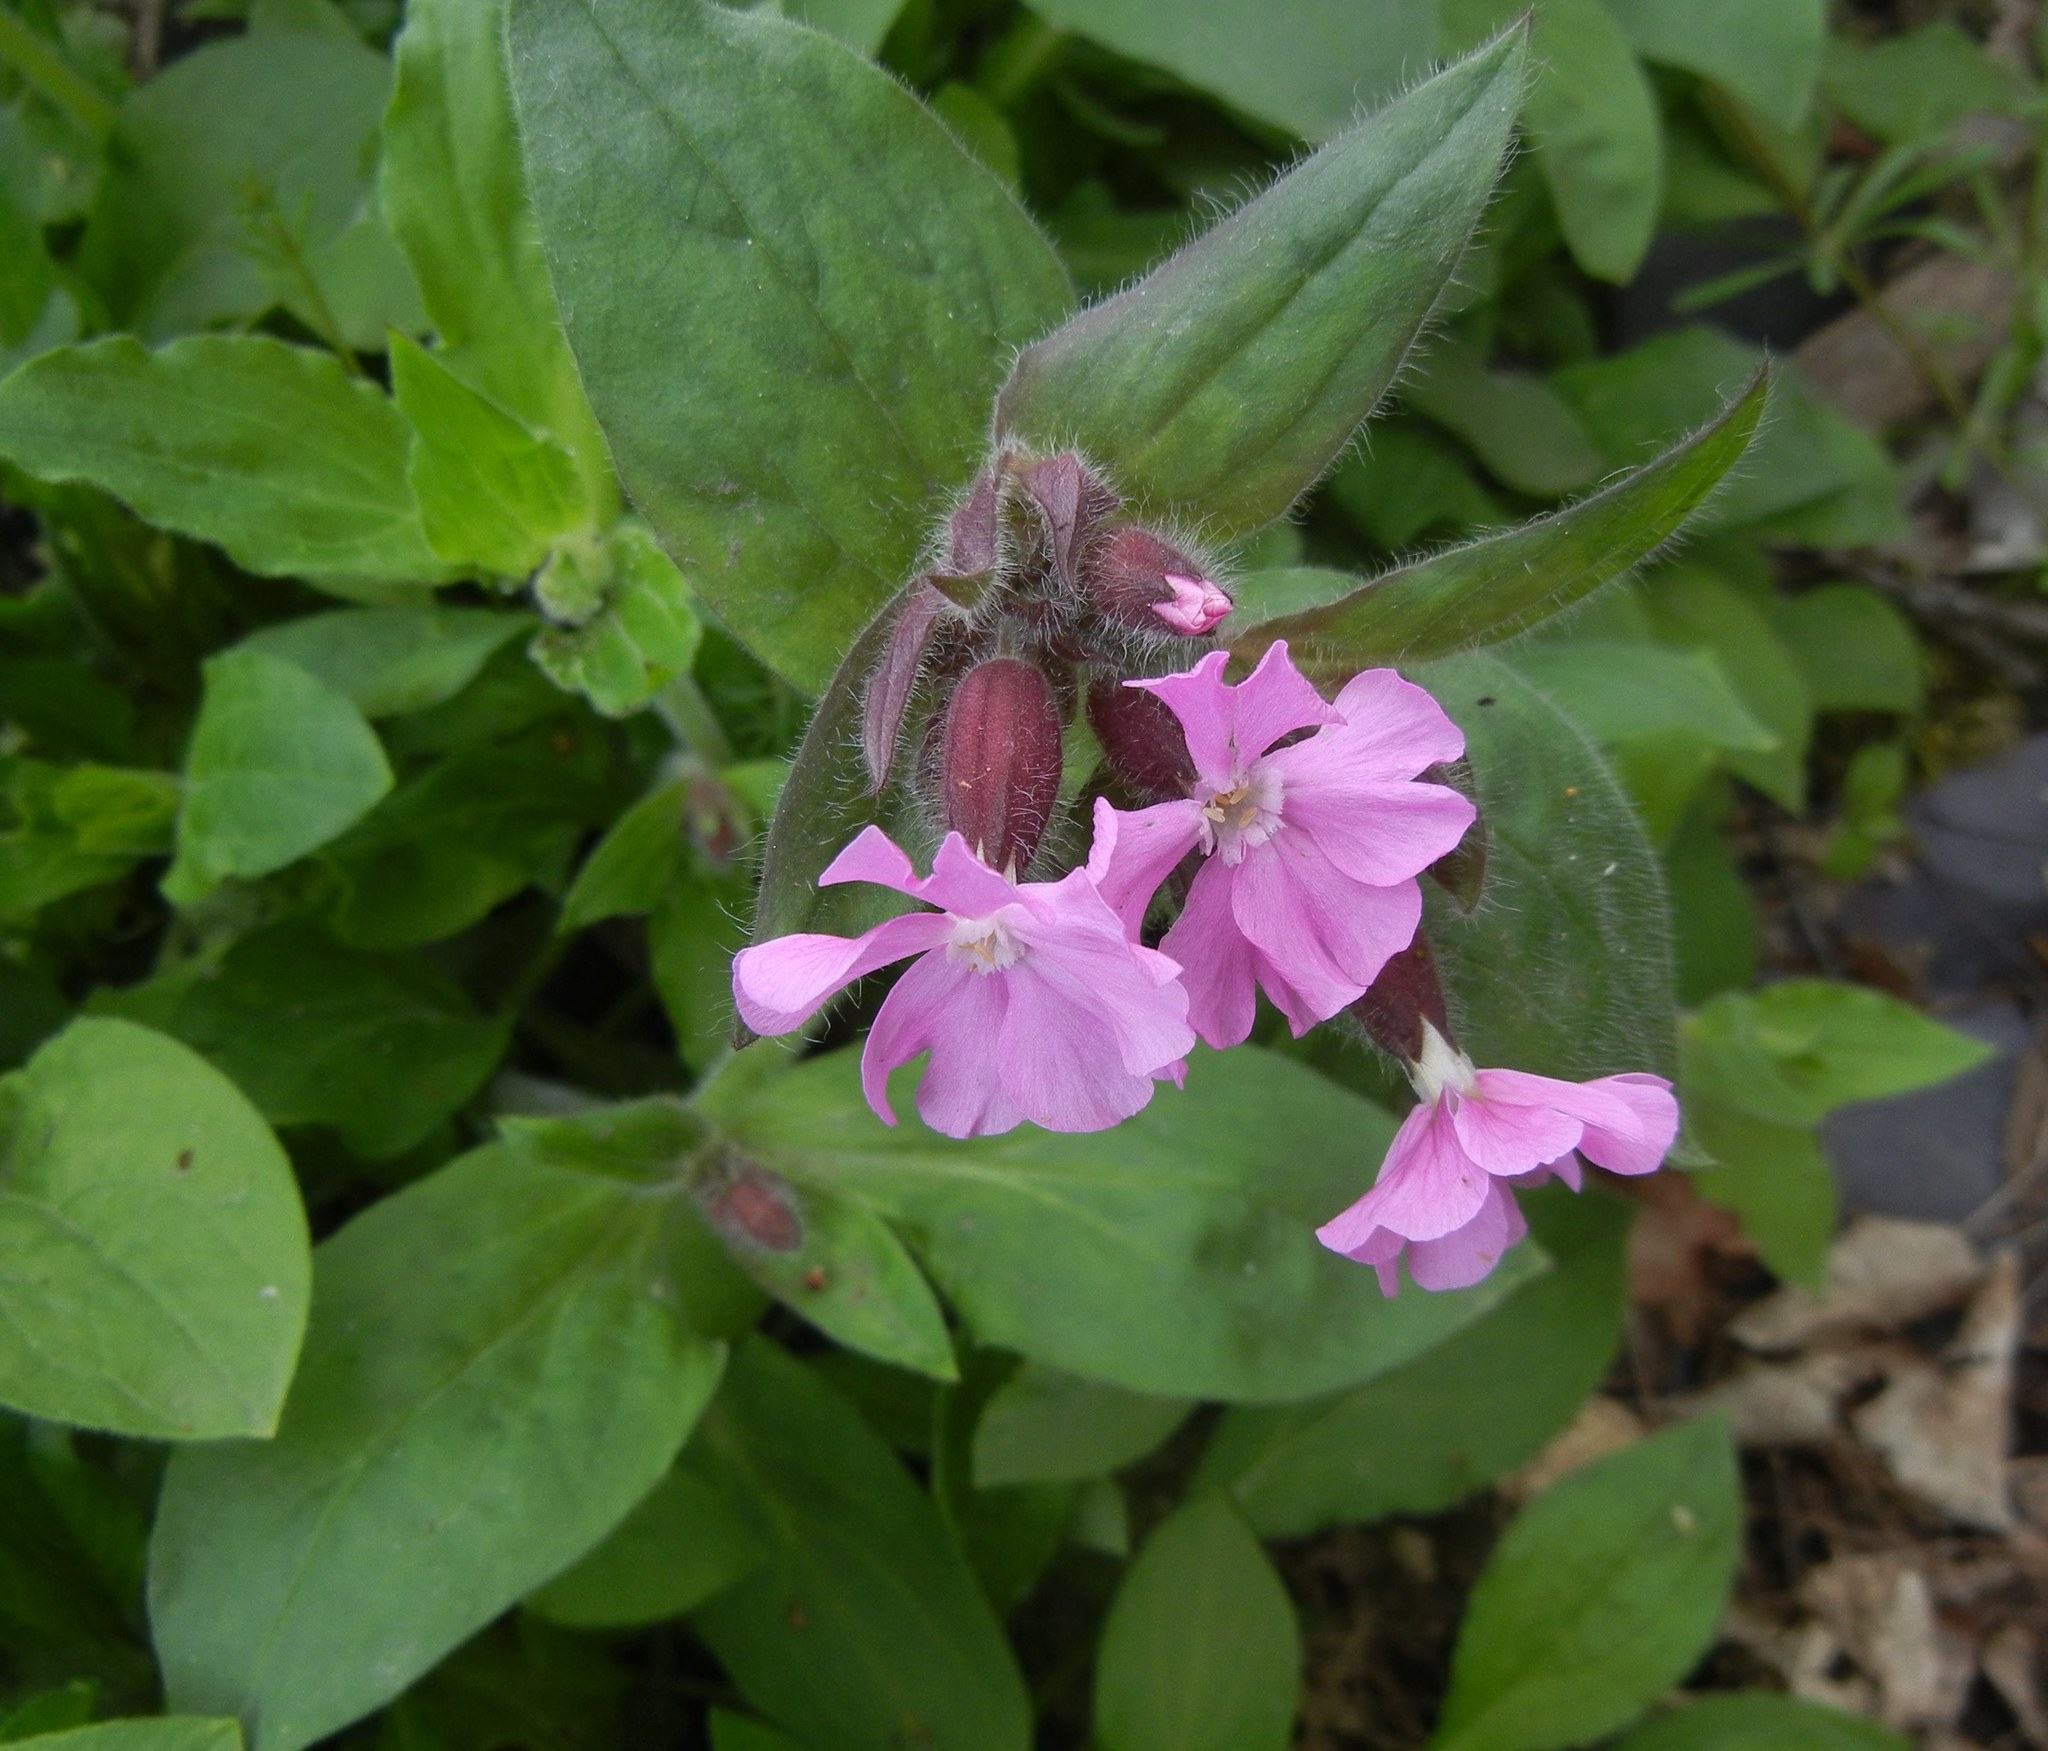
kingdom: Plantae
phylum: Tracheophyta
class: Magnoliopsida
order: Caryophyllales
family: Caryophyllaceae
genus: Silene
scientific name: Silene dioica
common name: Red campion
